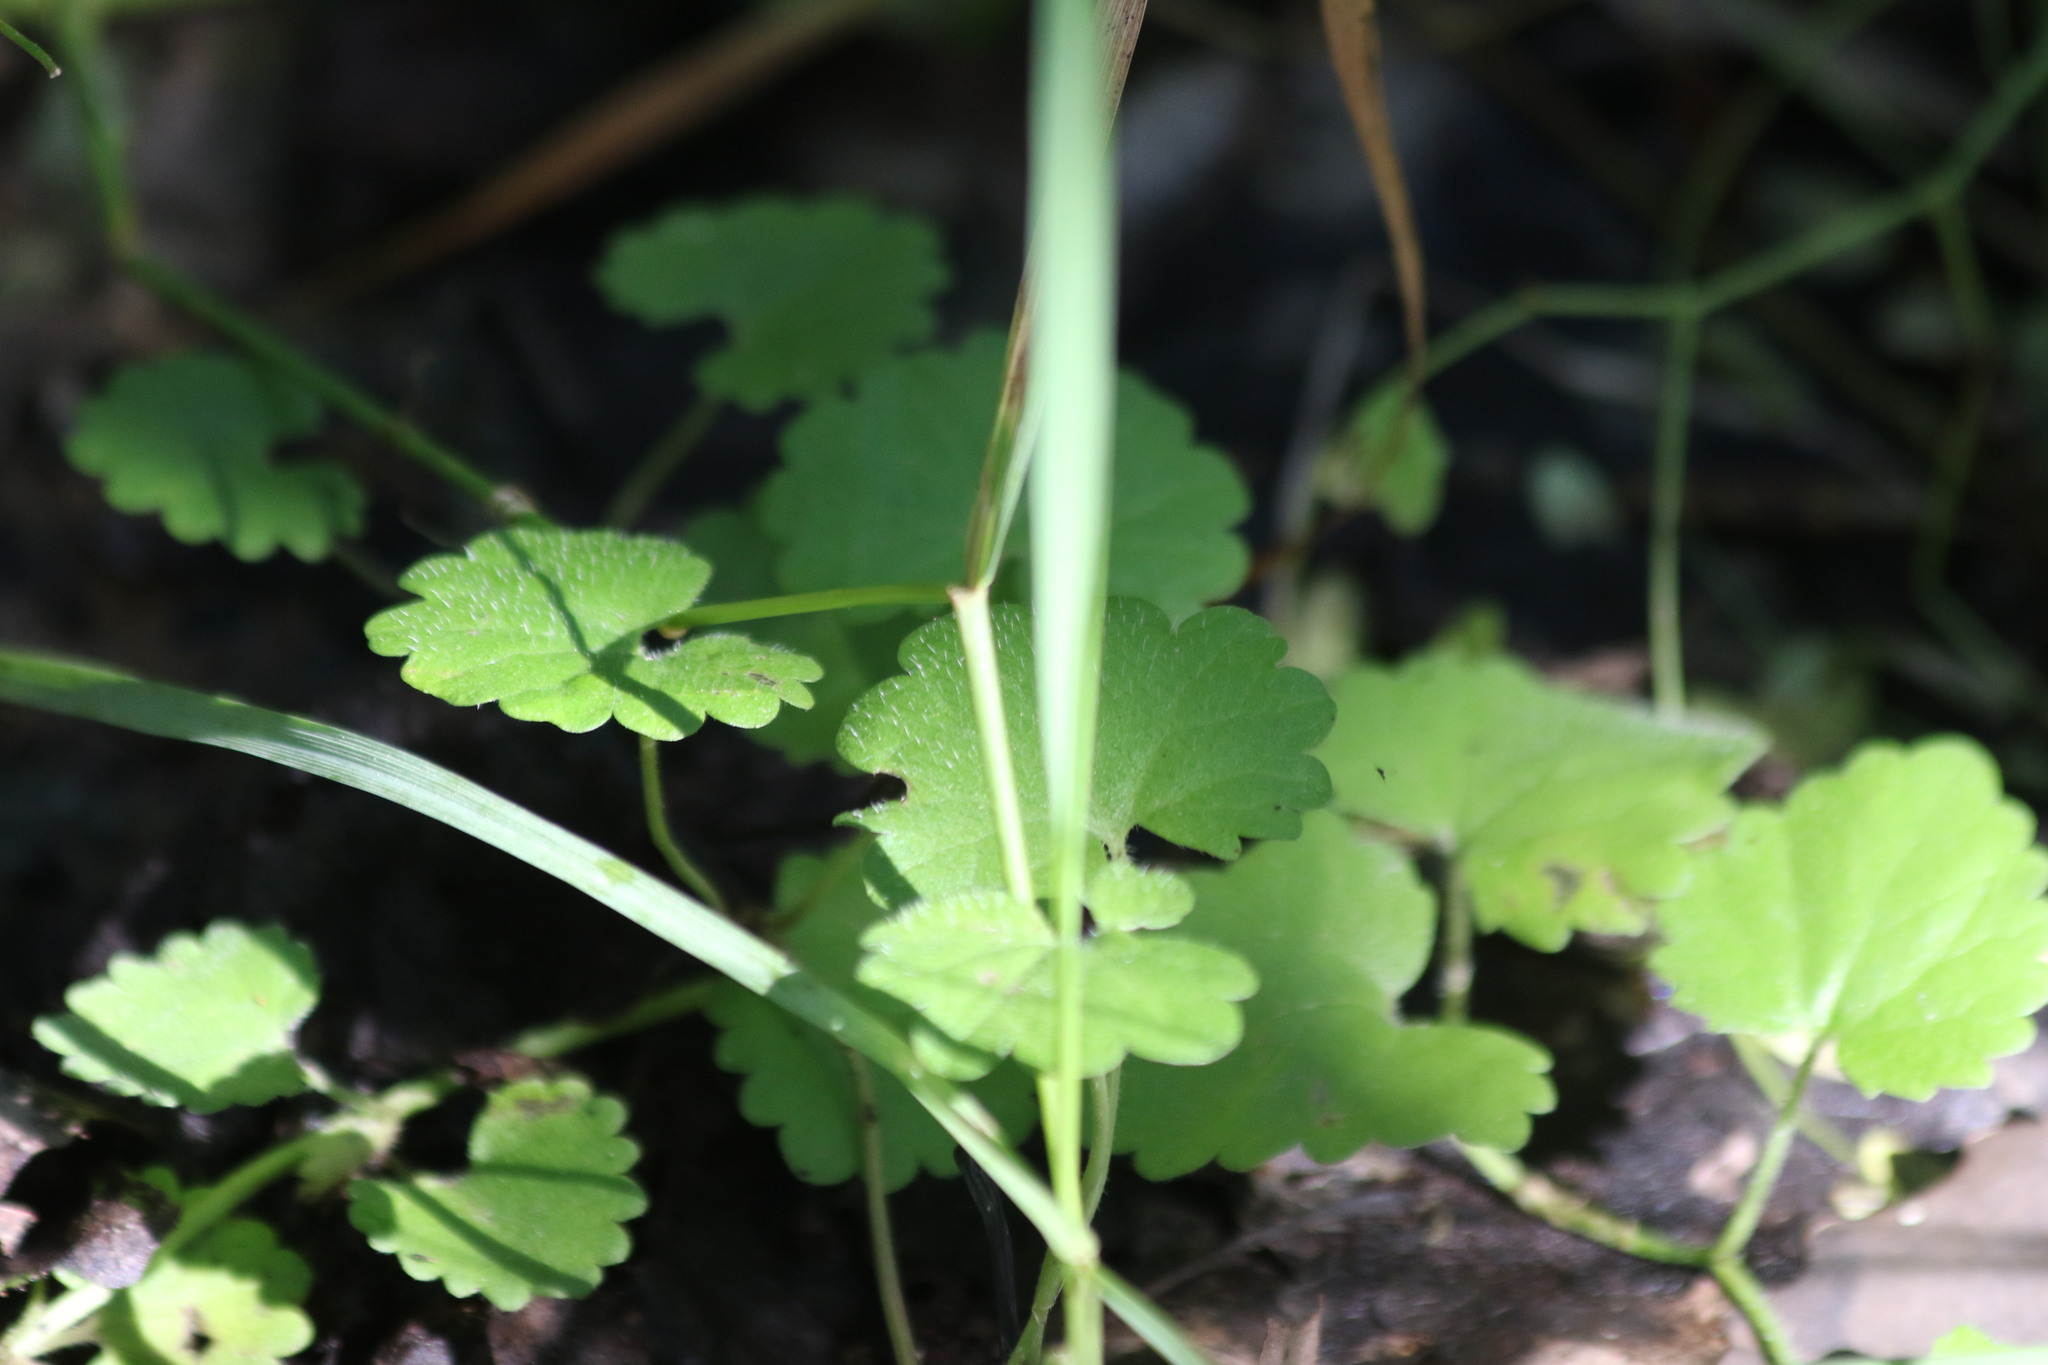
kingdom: Plantae
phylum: Tracheophyta
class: Magnoliopsida
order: Lamiales
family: Lamiaceae
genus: Glechoma
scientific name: Glechoma hederacea
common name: Ground ivy
